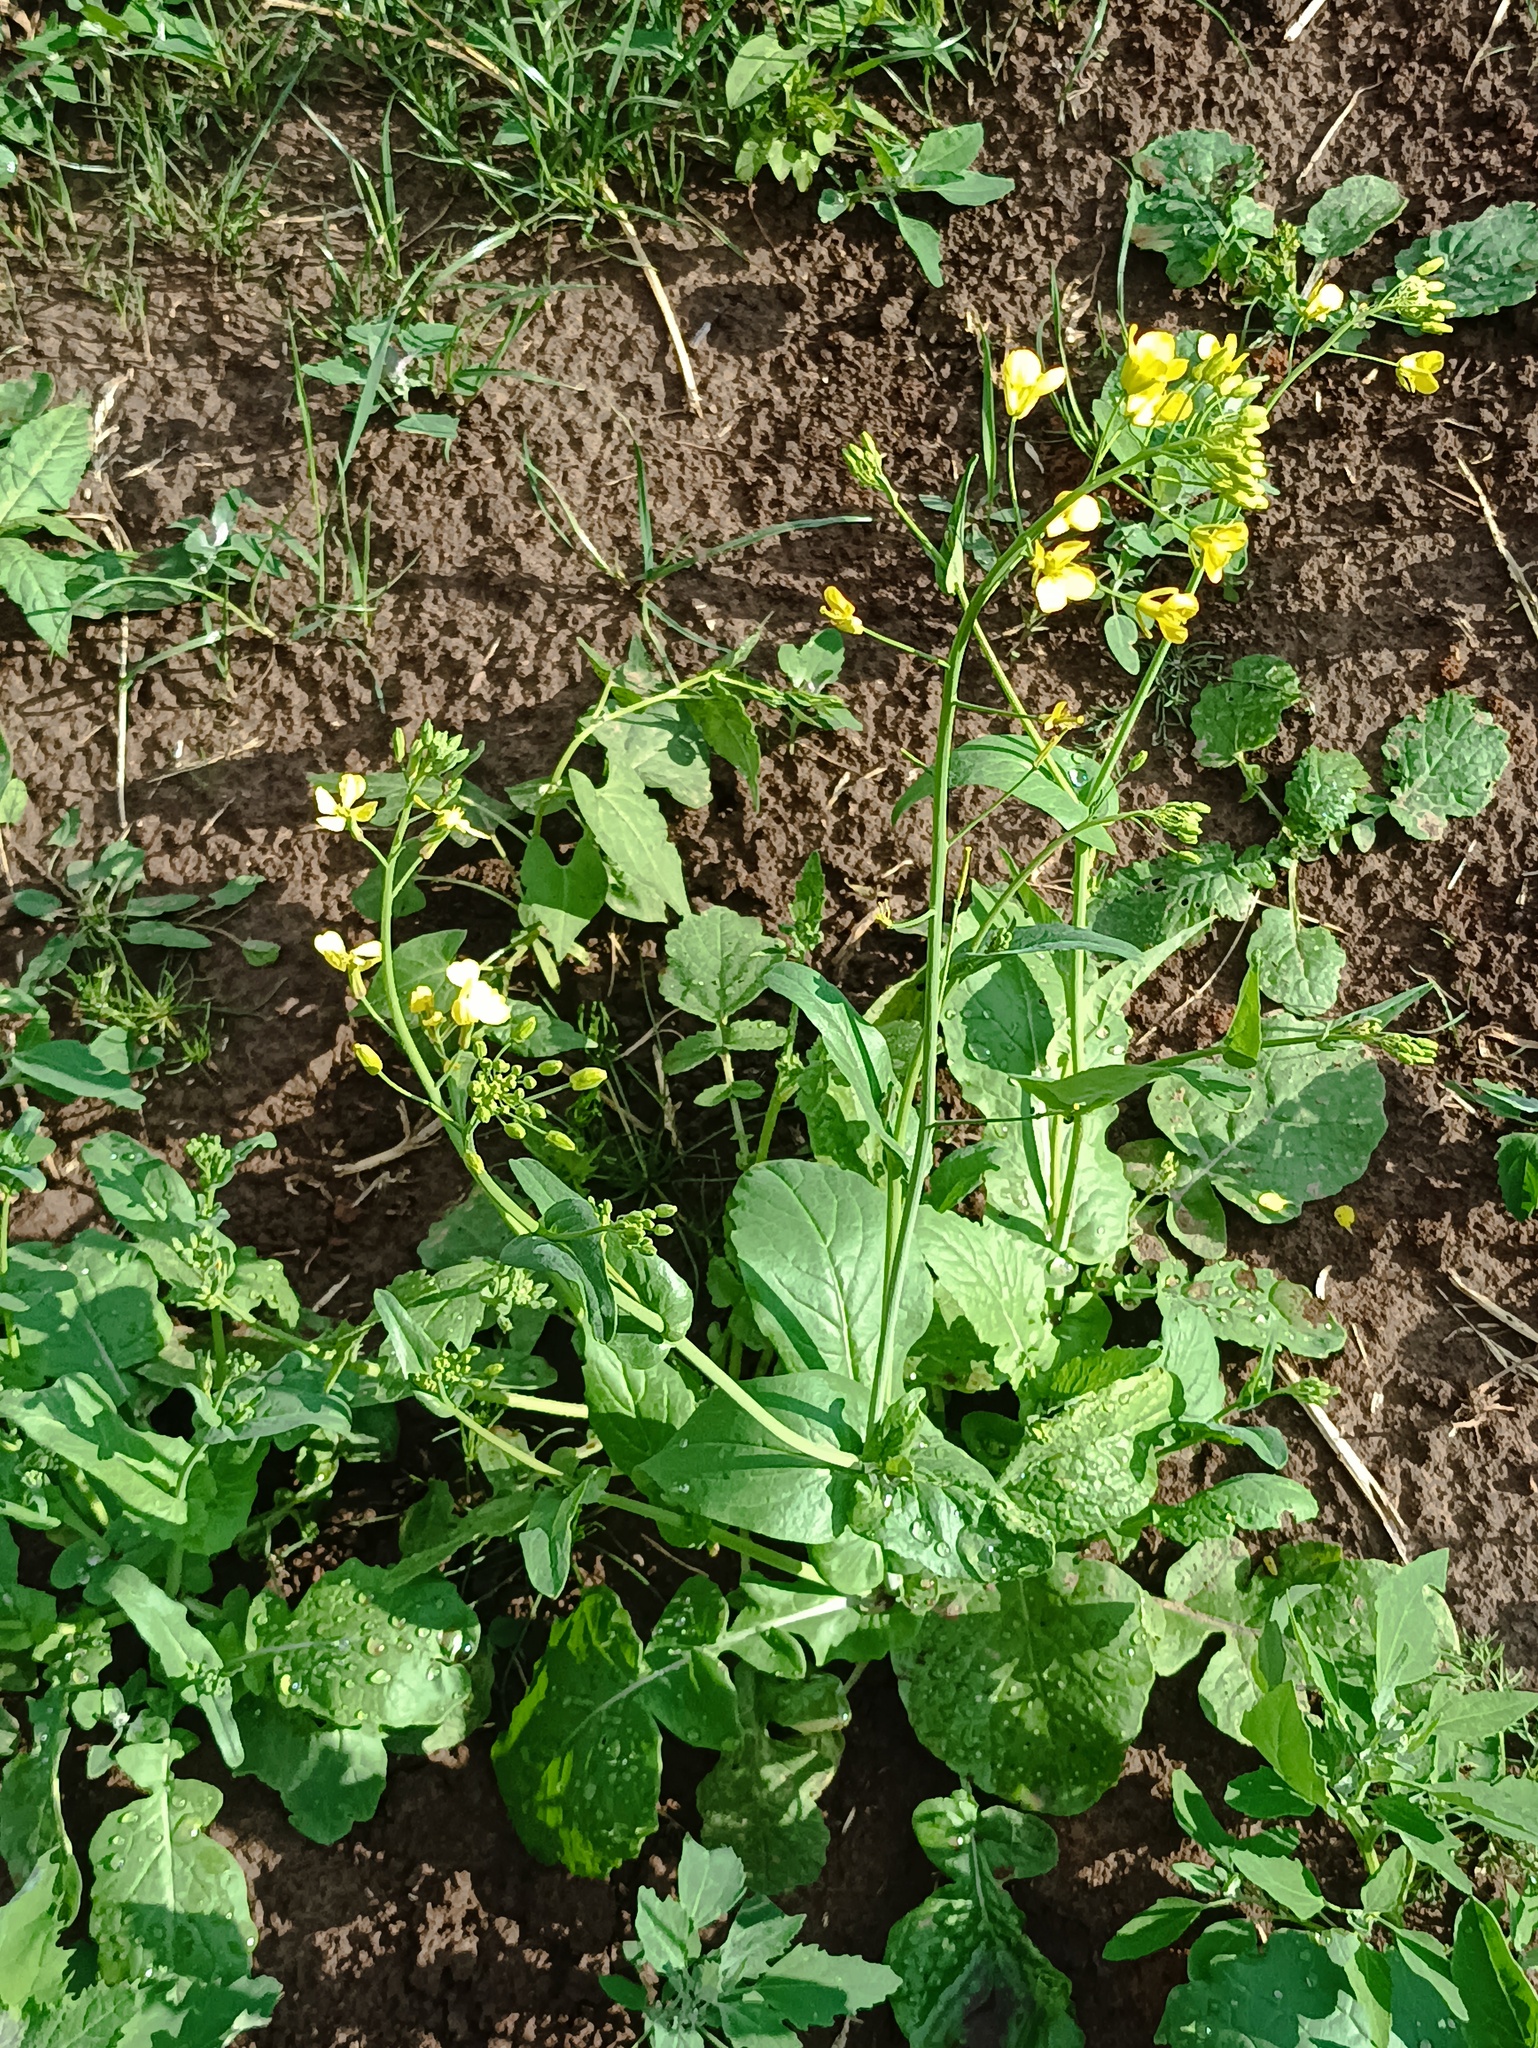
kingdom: Plantae
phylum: Tracheophyta
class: Magnoliopsida
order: Brassicales
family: Brassicaceae
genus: Brassica
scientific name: Brassica rapa
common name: Field mustard
